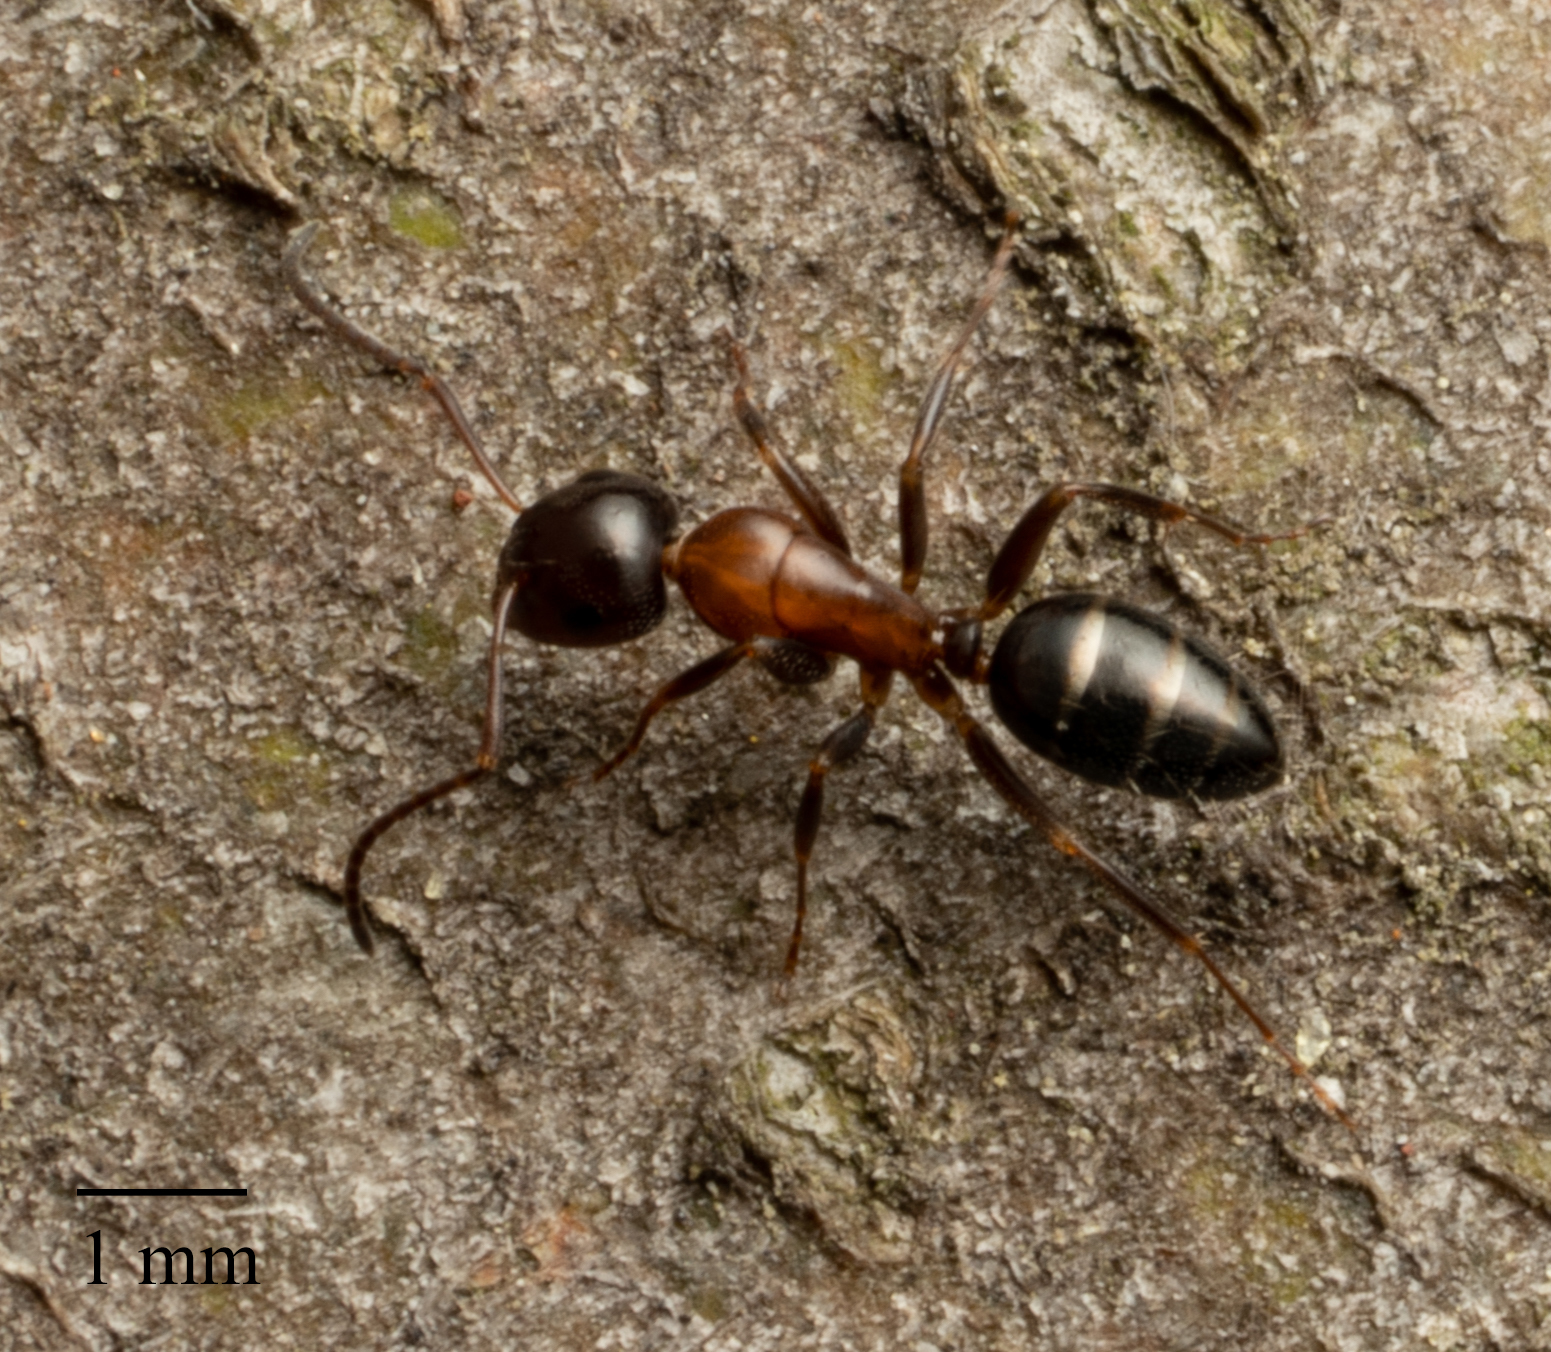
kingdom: Animalia
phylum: Arthropoda
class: Insecta
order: Hymenoptera
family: Formicidae
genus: Liometopum
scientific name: Liometopum occidentale
